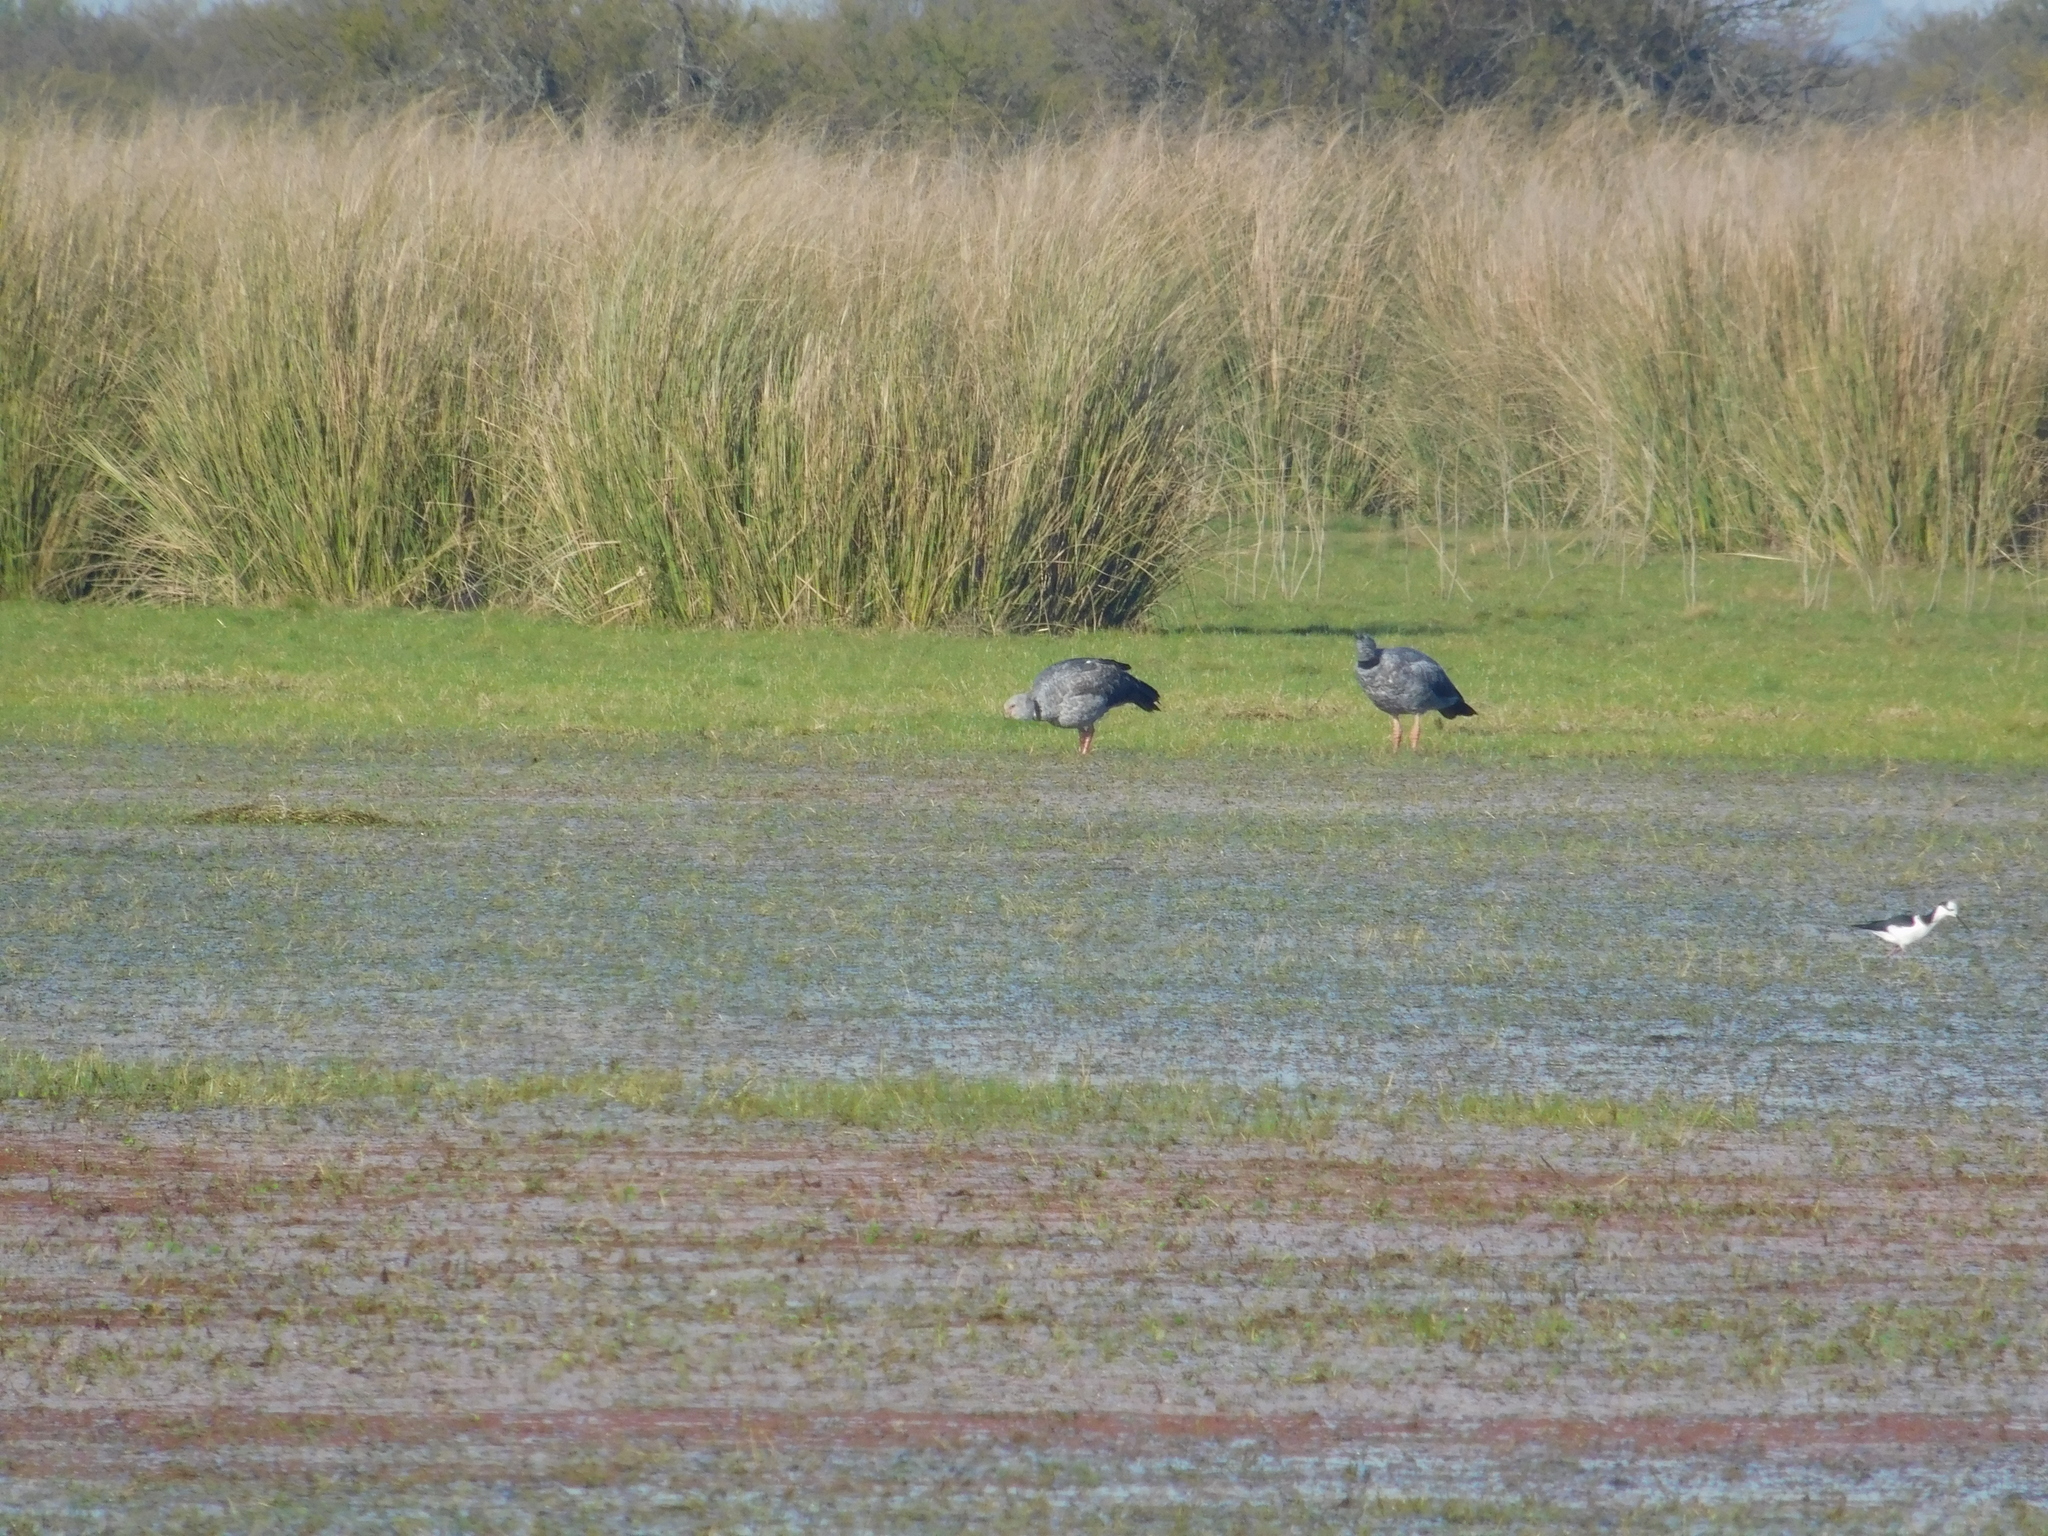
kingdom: Animalia
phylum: Chordata
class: Aves
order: Anseriformes
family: Anhimidae
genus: Chauna
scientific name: Chauna torquata
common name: Southern screamer
